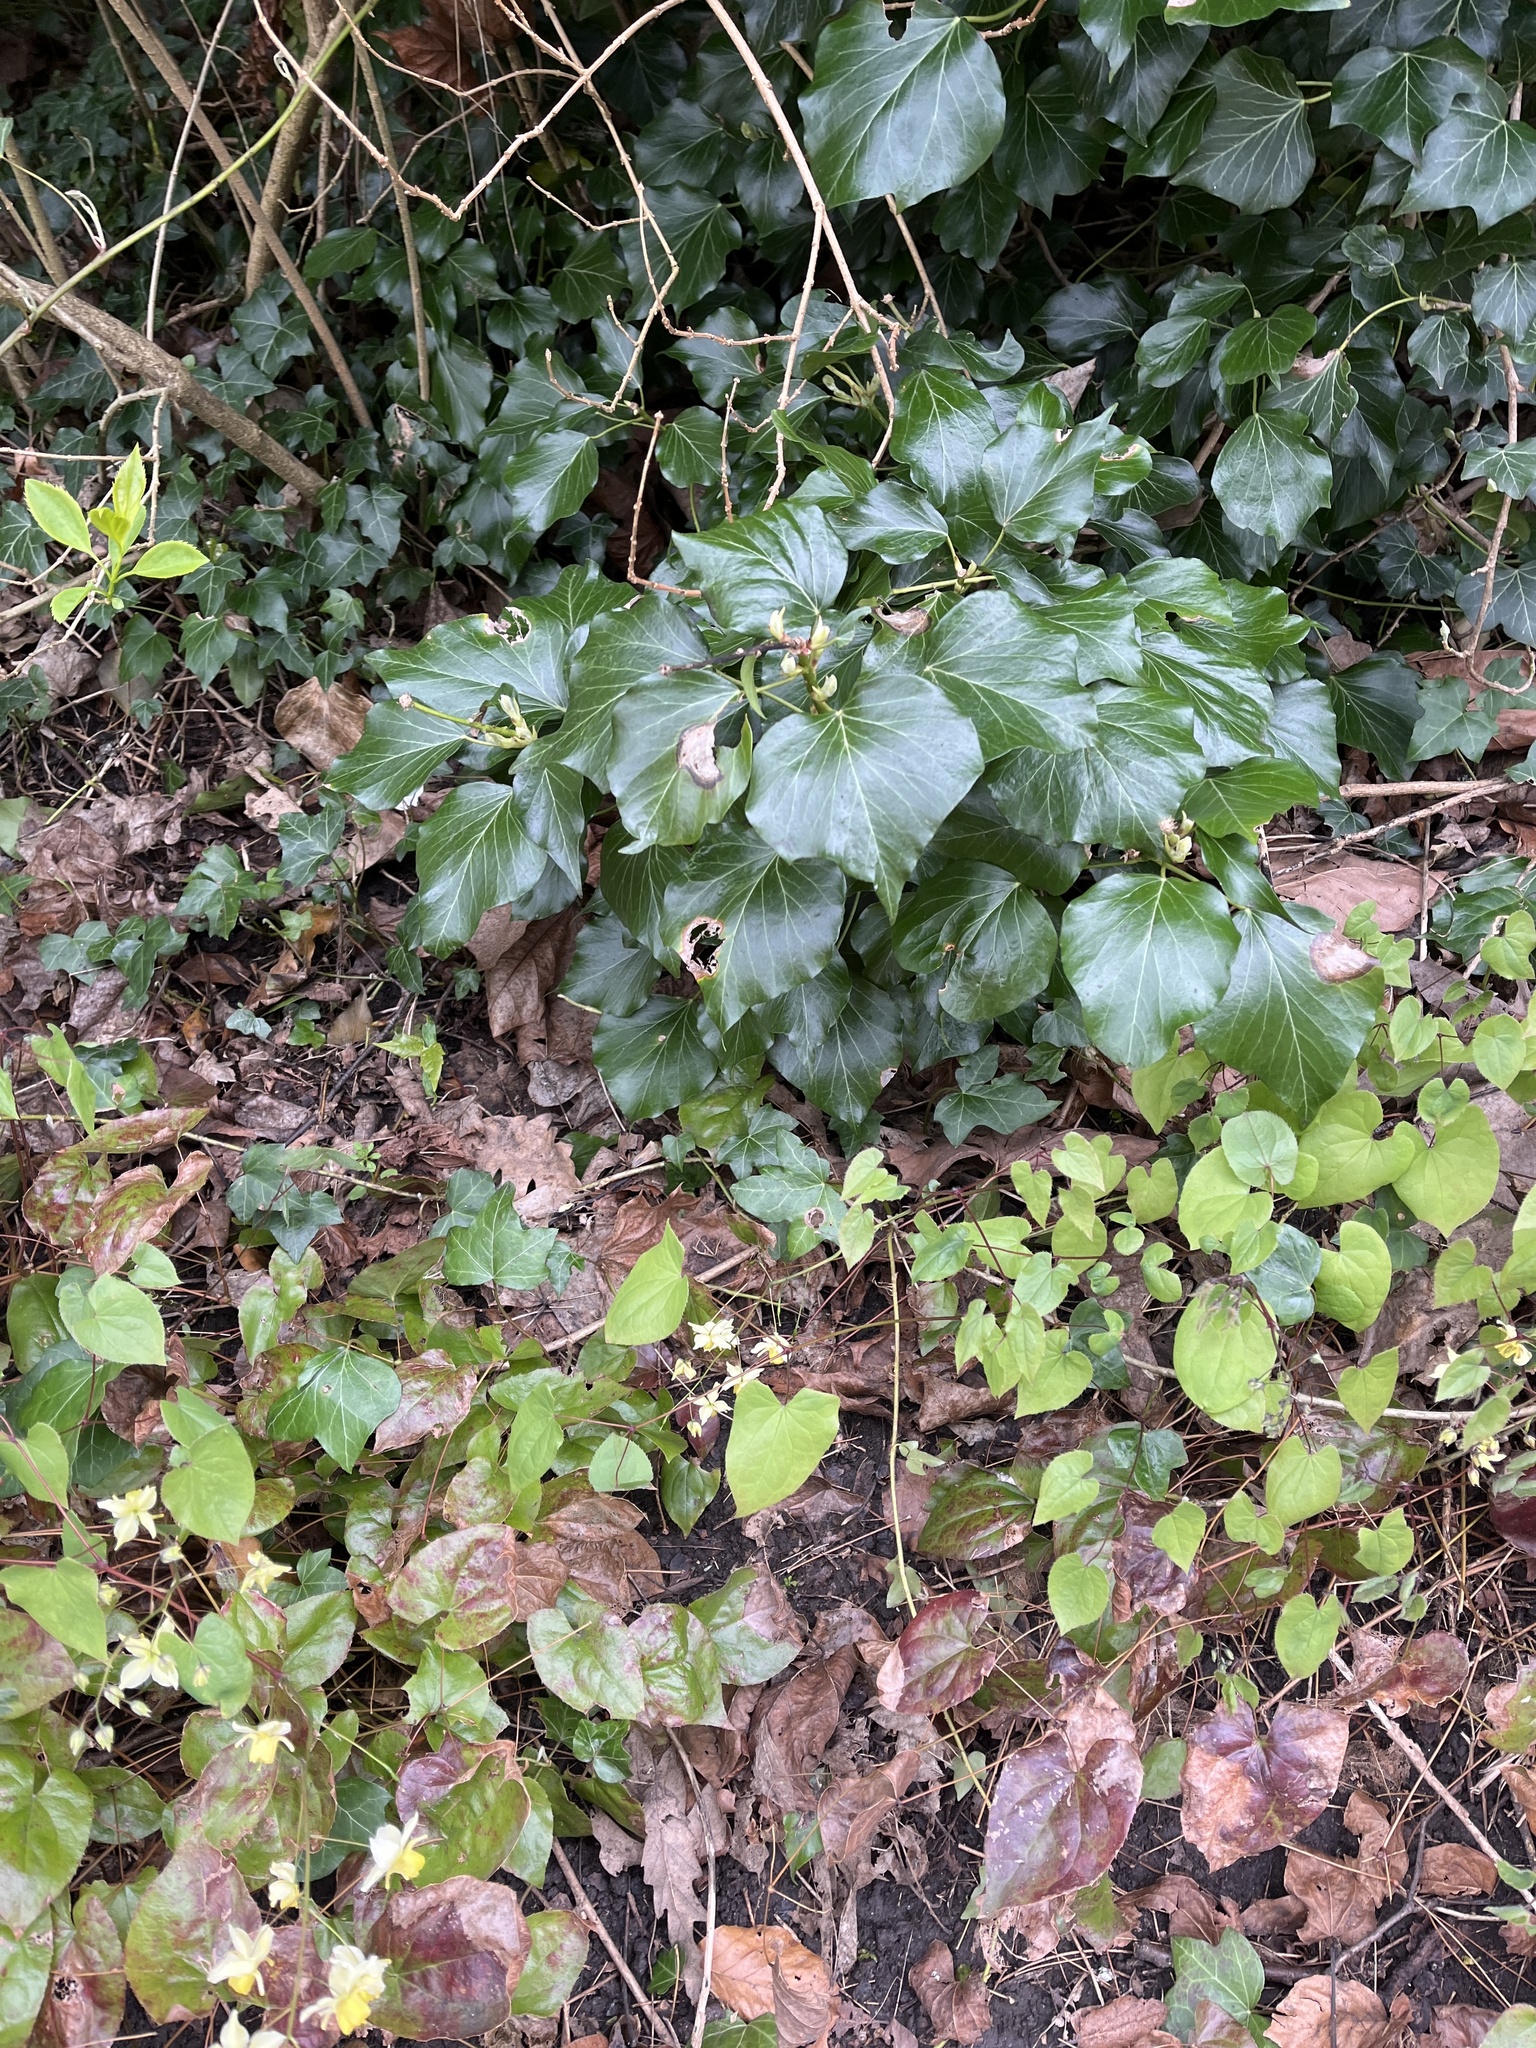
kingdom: Plantae
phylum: Tracheophyta
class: Magnoliopsida
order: Ranunculales
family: Berberidaceae
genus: Epimedium
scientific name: Epimedium versicolor
